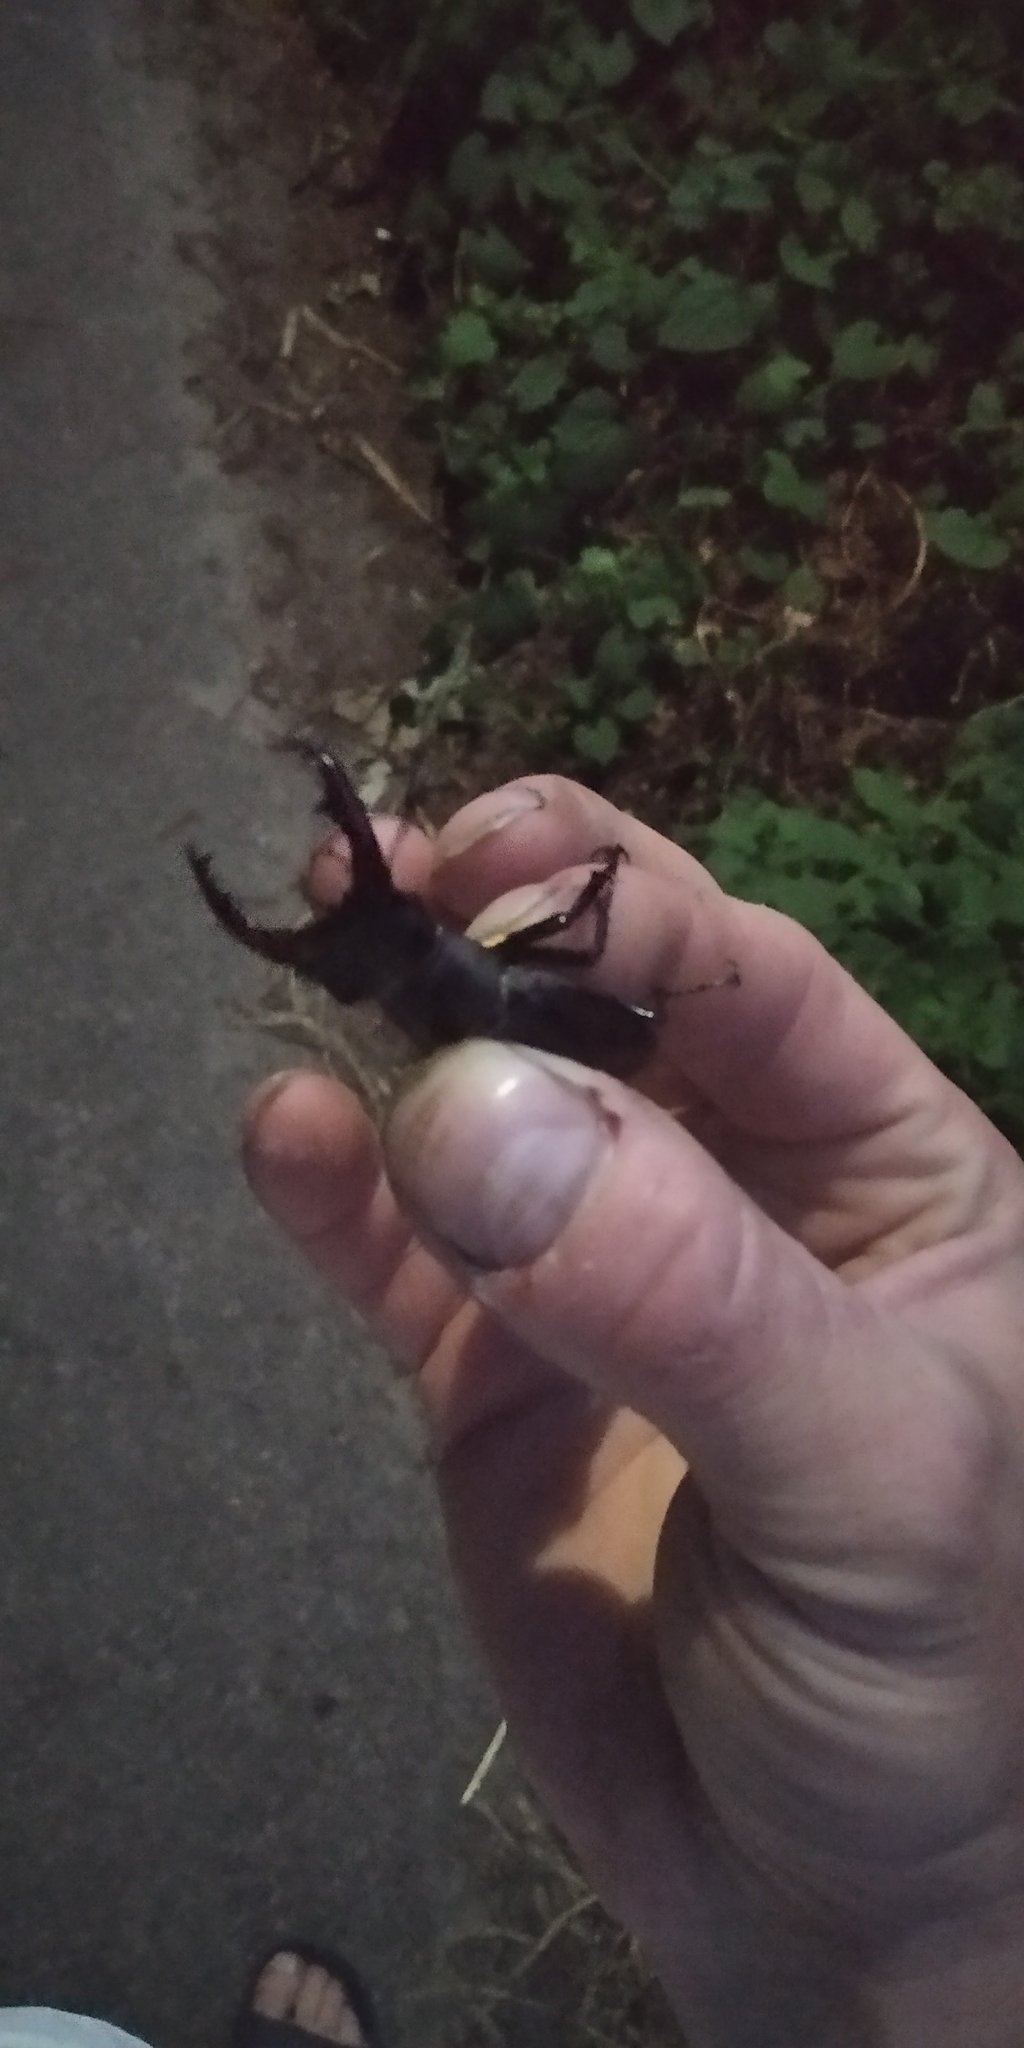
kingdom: Animalia
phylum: Arthropoda
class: Insecta
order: Coleoptera
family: Lucanidae
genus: Lucanus
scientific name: Lucanus cervus
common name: Stag beetle
